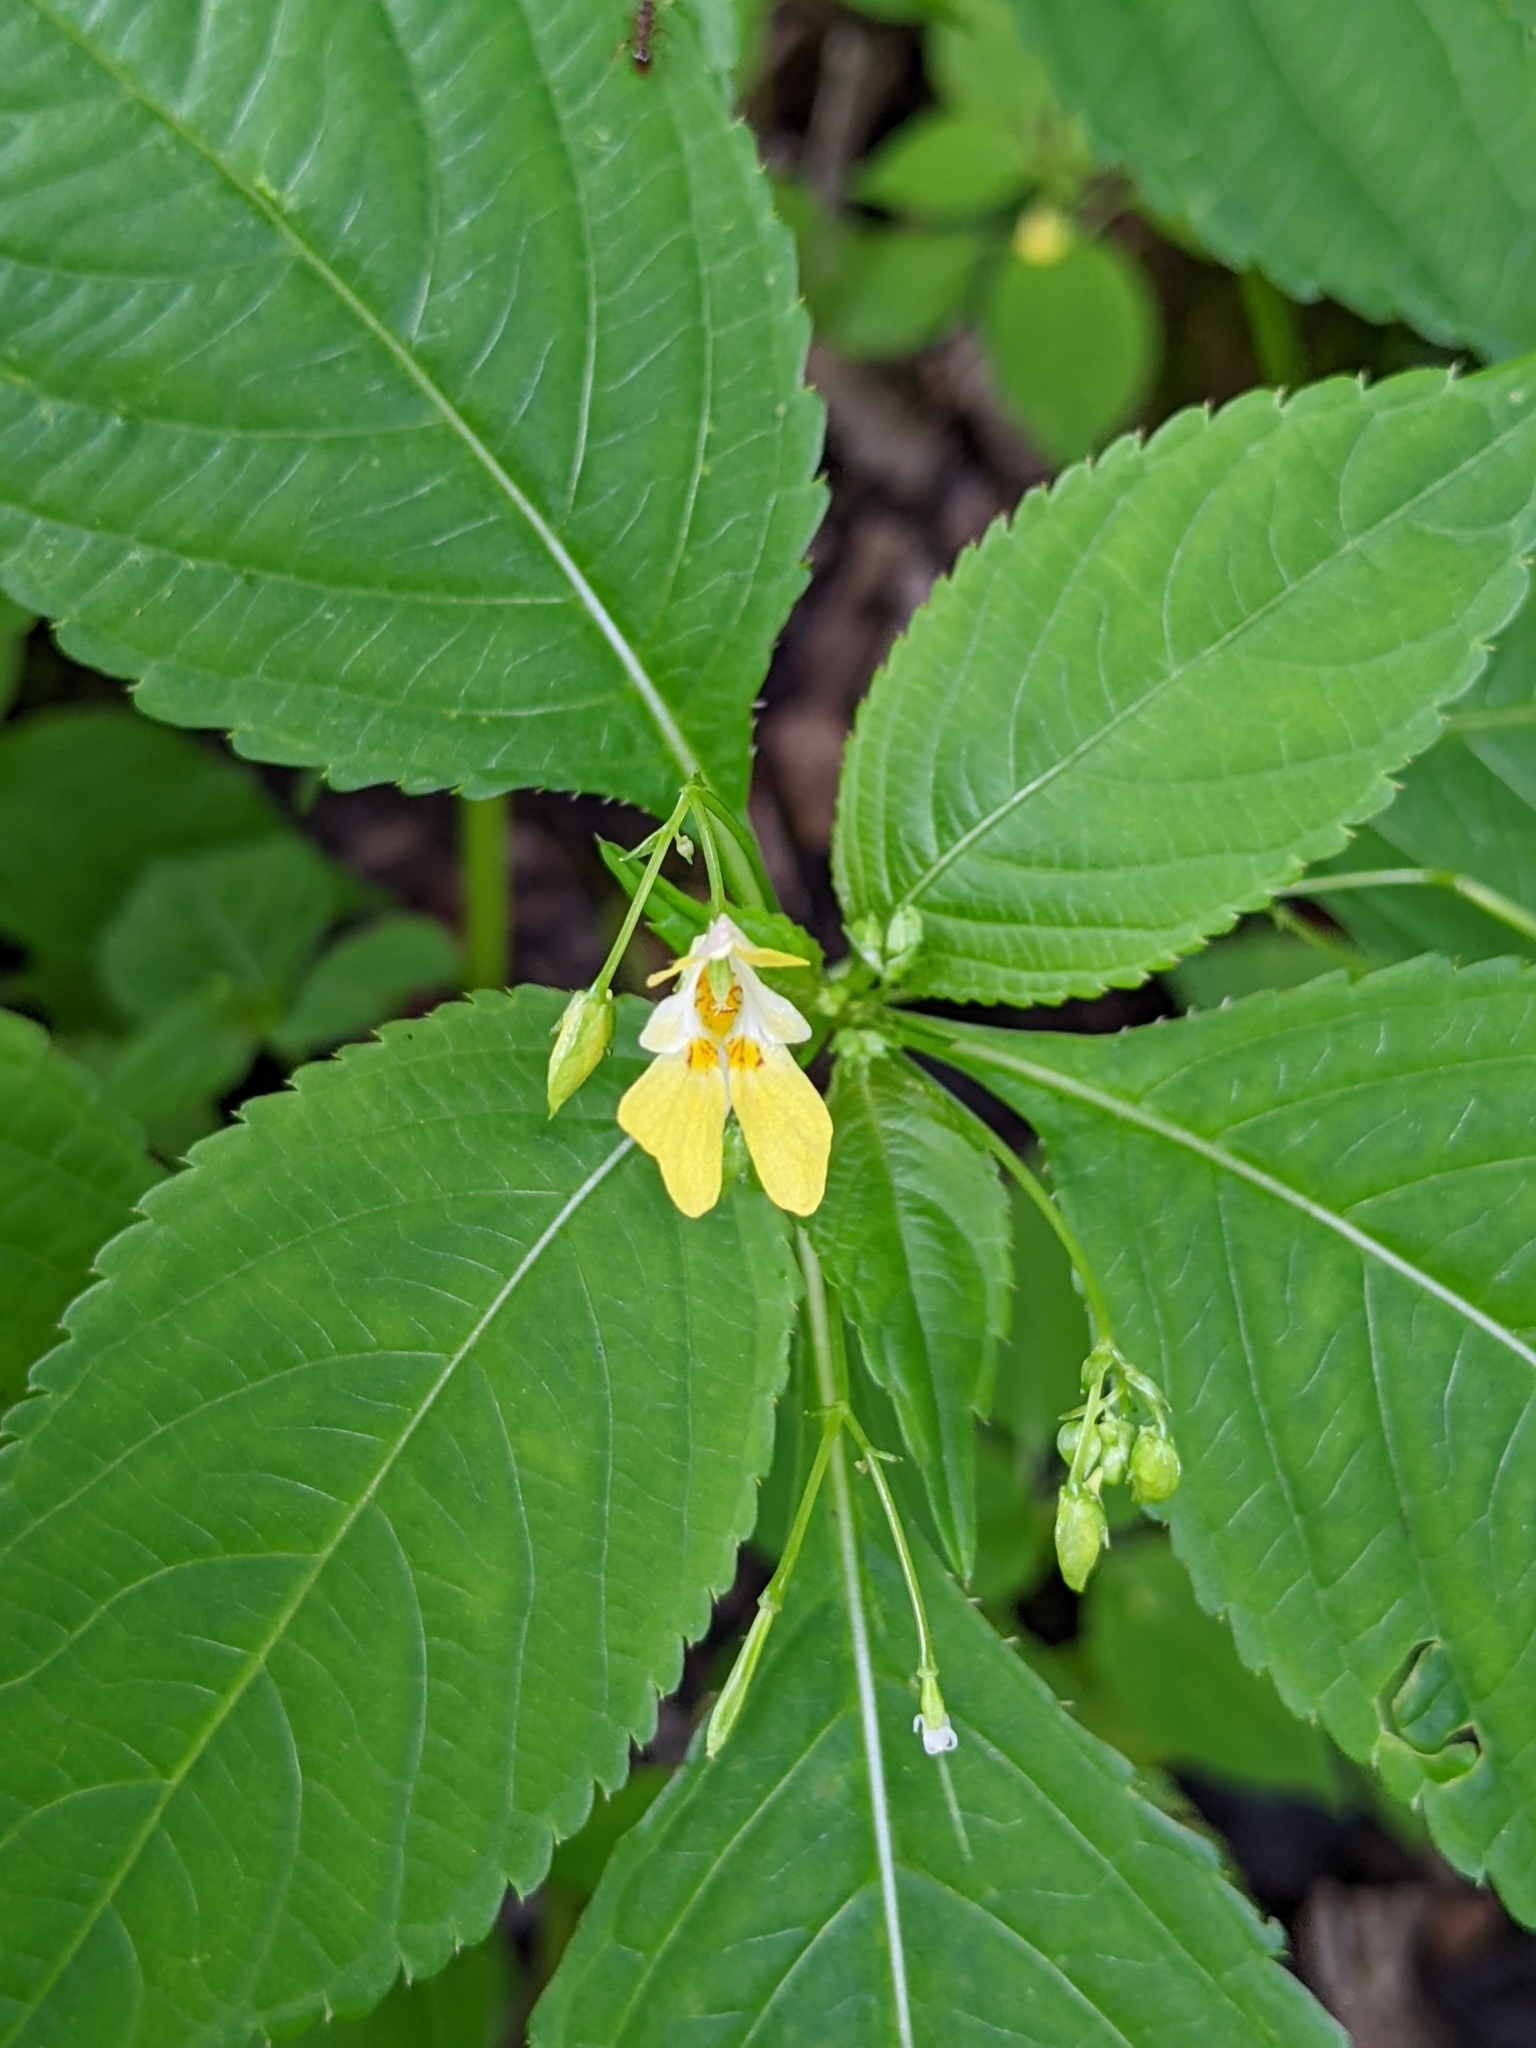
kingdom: Plantae
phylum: Tracheophyta
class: Magnoliopsida
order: Ericales
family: Balsaminaceae
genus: Impatiens
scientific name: Impatiens parviflora
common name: Small balsam
